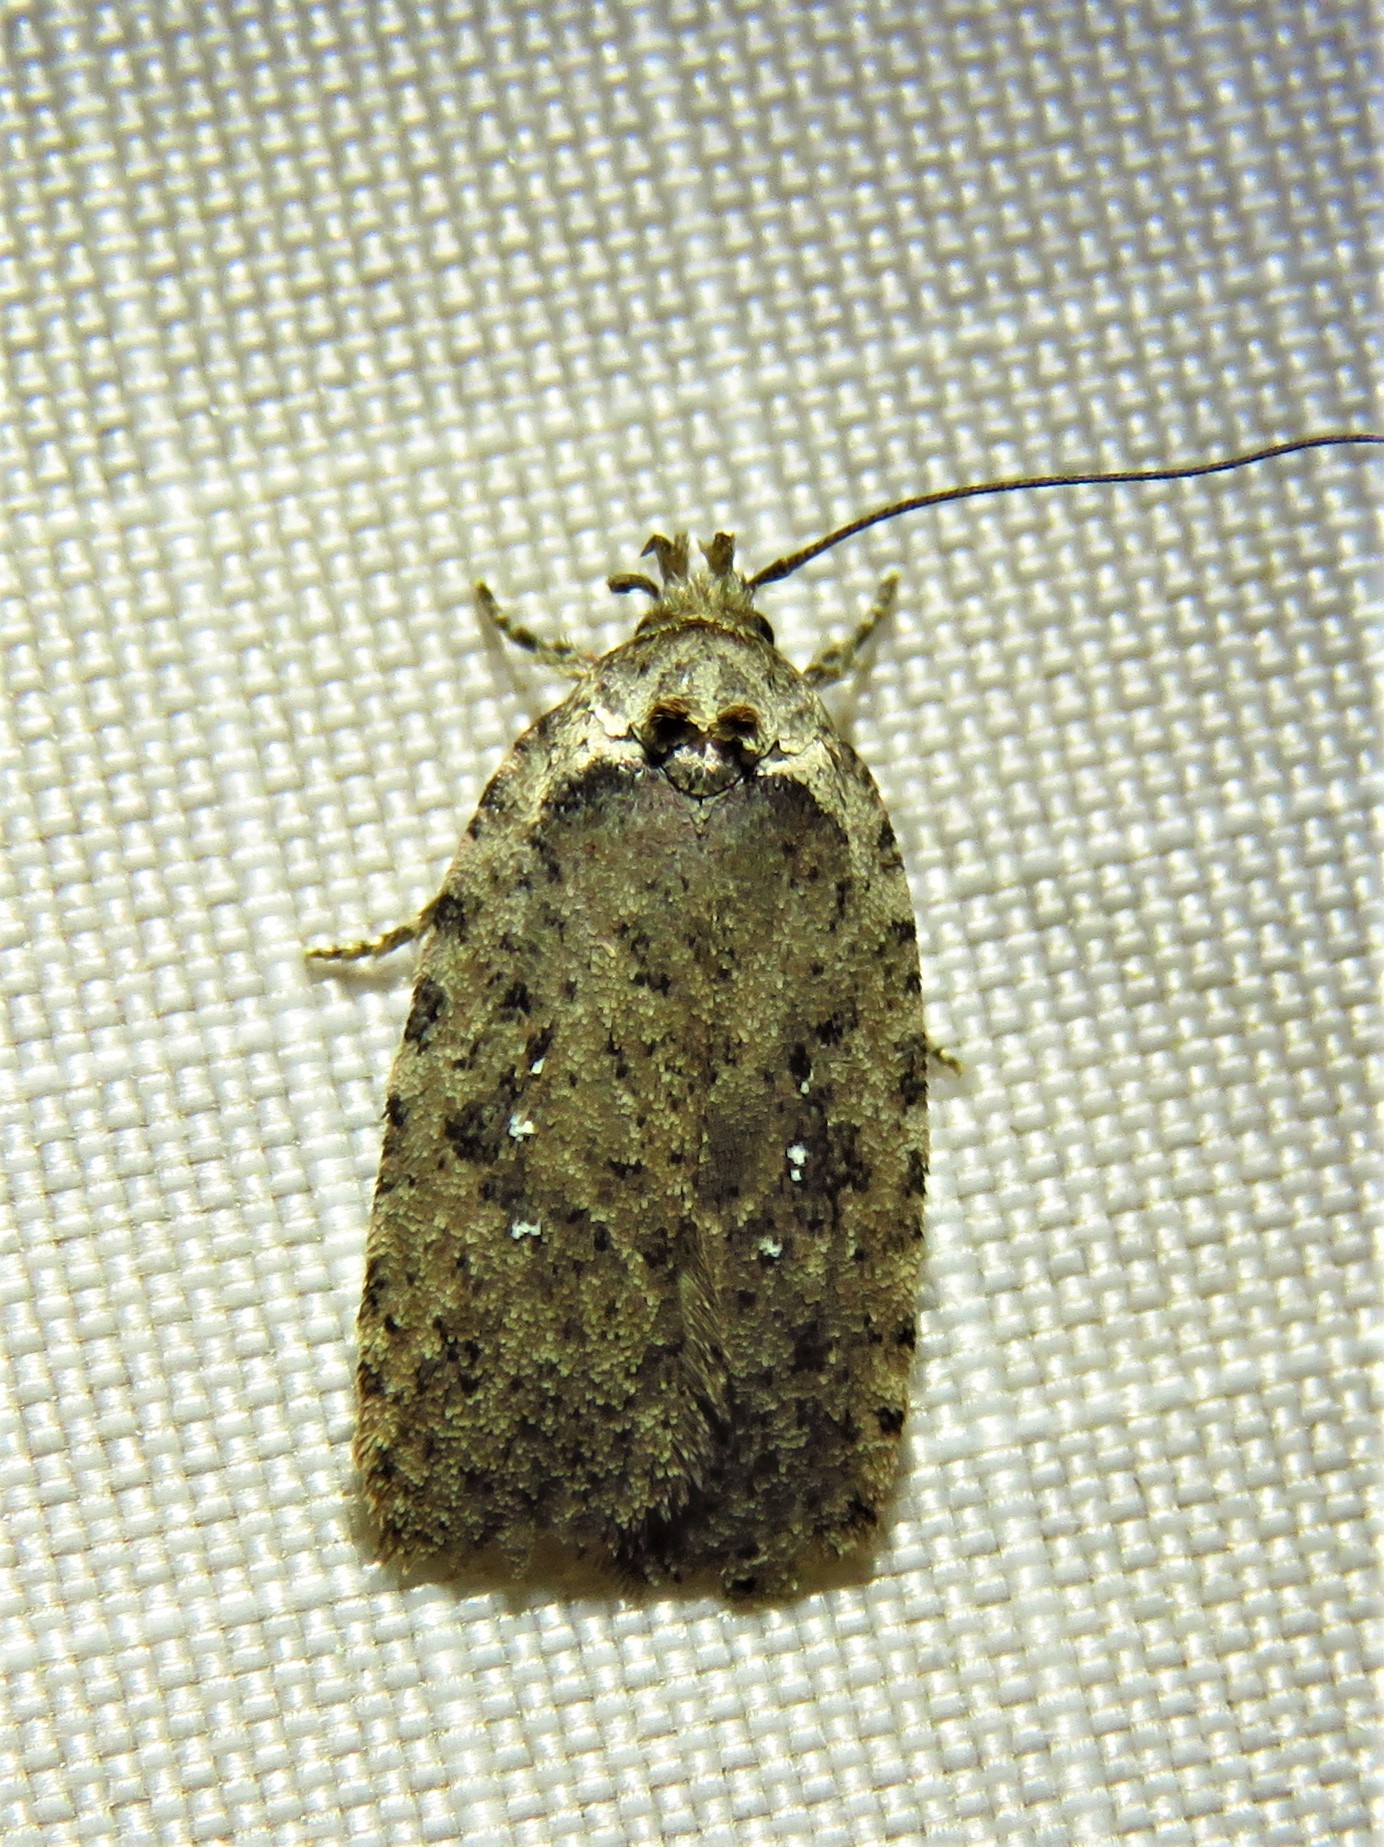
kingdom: Animalia
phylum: Arthropoda
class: Insecta
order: Lepidoptera
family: Depressariidae
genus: Agonopterix
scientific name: Agonopterix argillacea
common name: Clay-colored agonopterix moth
